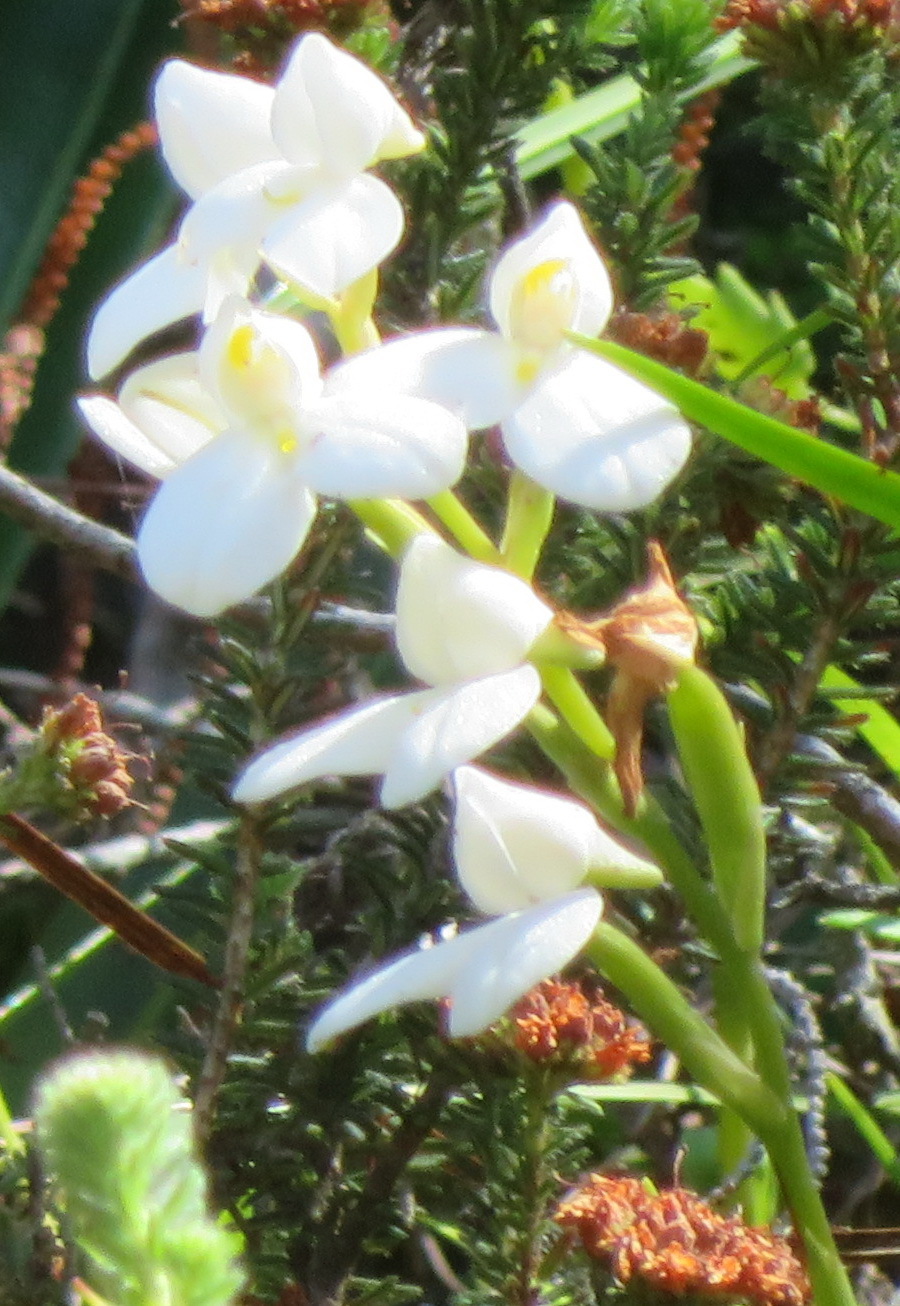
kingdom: Plantae
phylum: Tracheophyta
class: Liliopsida
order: Asparagales
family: Orchidaceae
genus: Disa
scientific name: Disa tripetaloides
